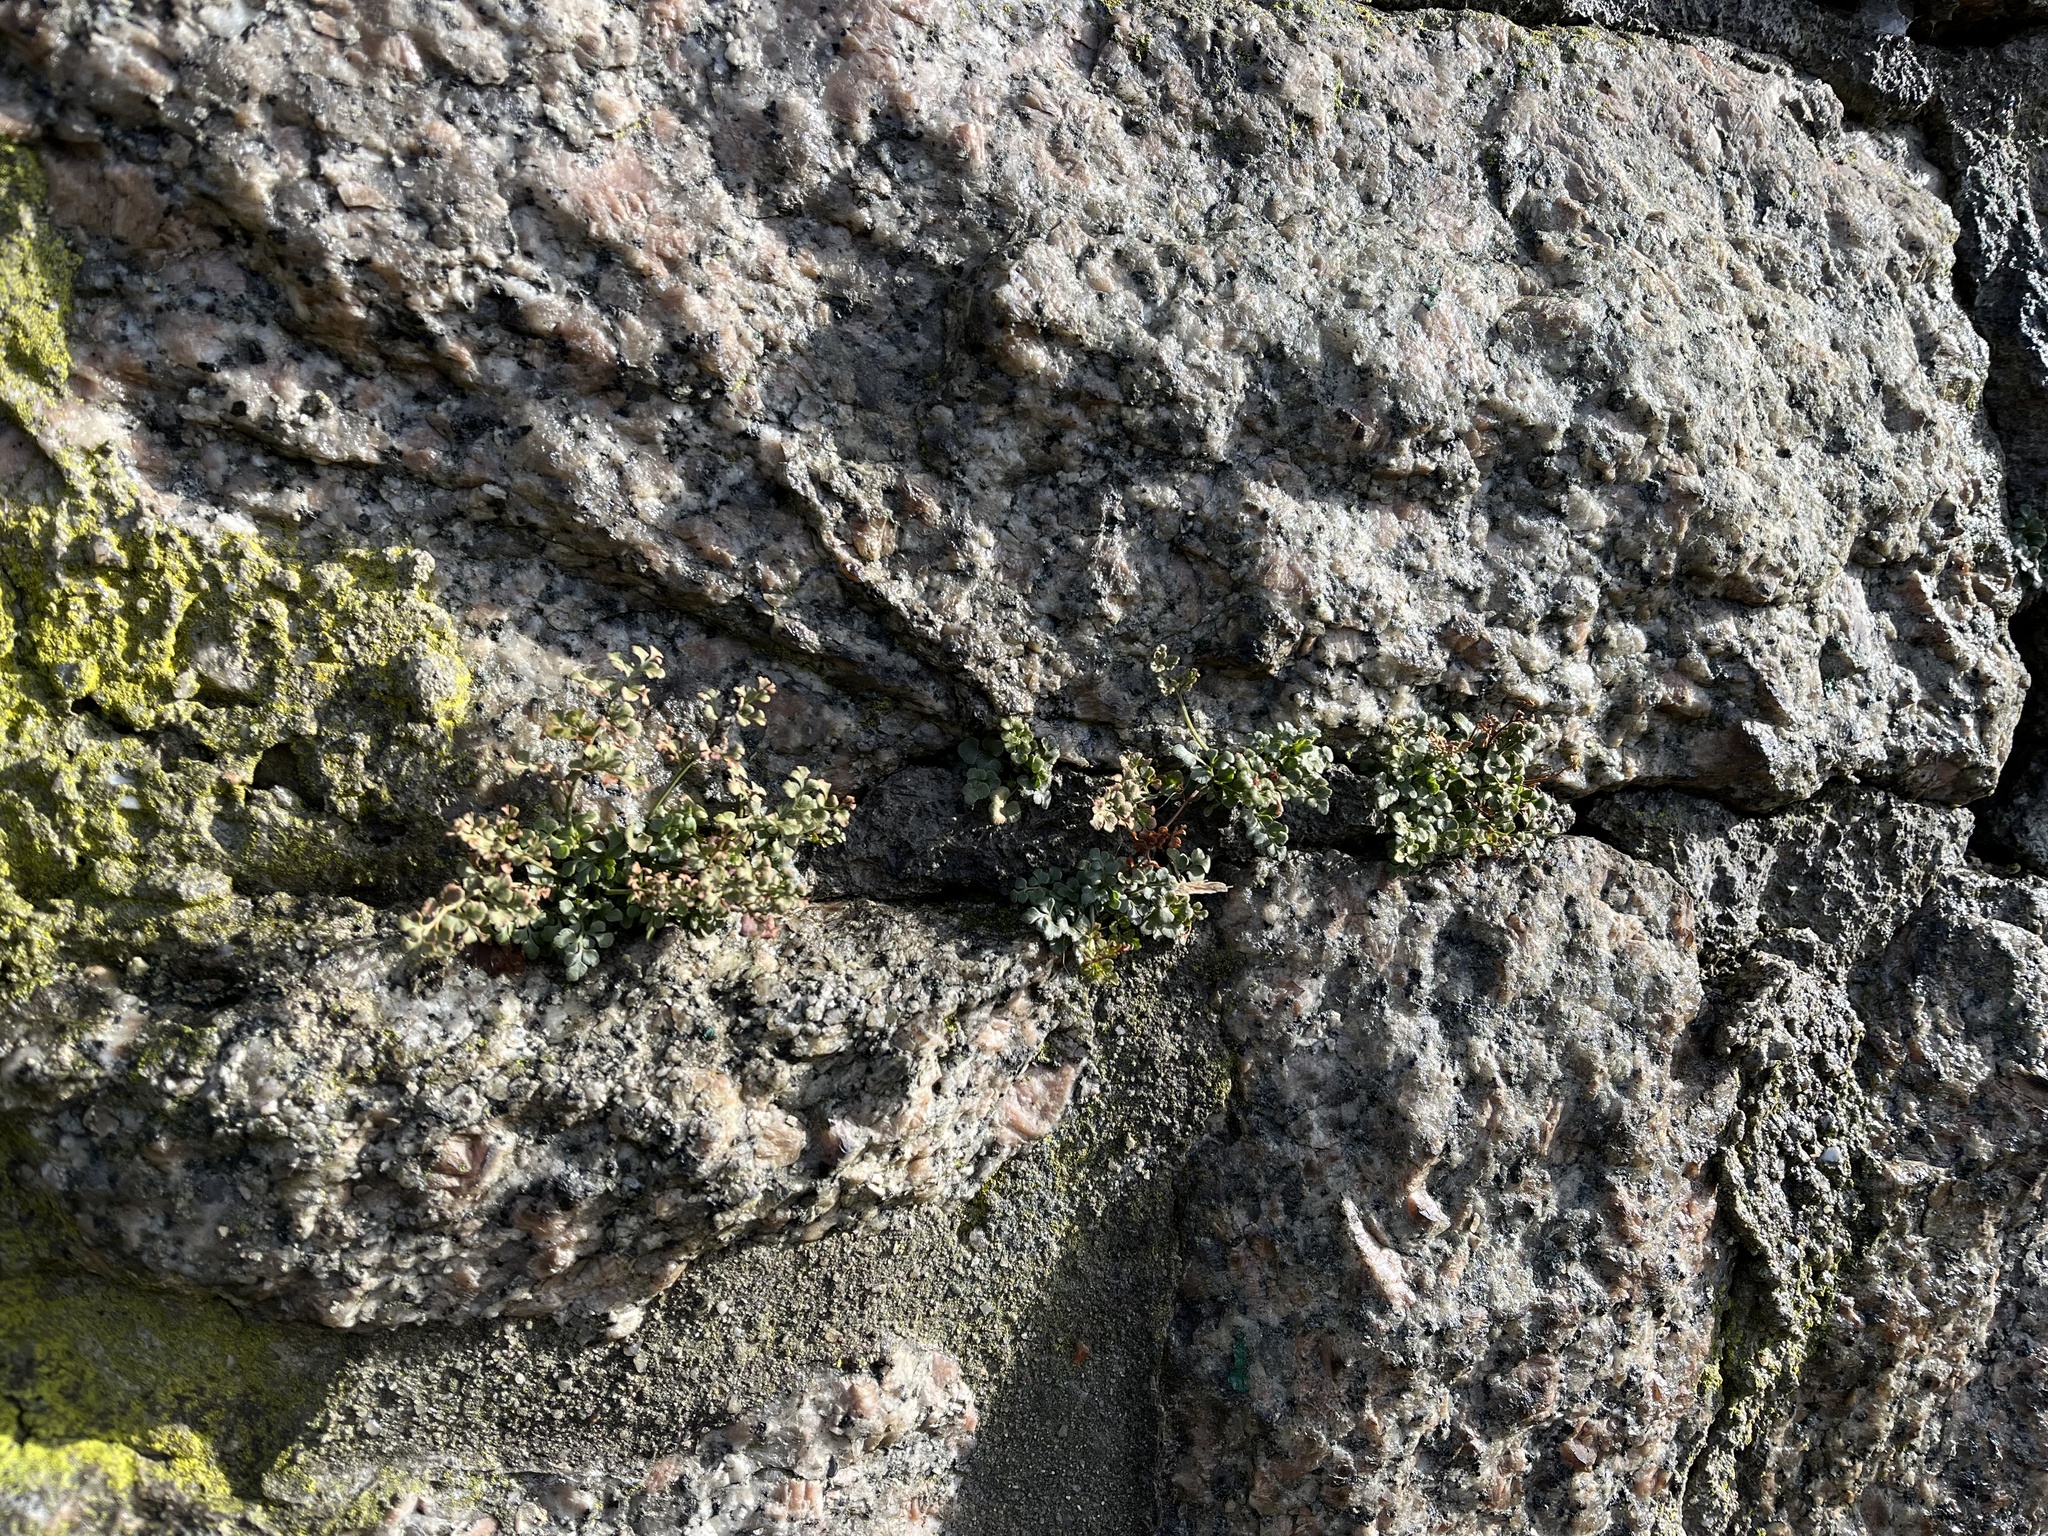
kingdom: Plantae
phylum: Tracheophyta
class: Polypodiopsida
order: Polypodiales
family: Aspleniaceae
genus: Asplenium
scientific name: Asplenium ruta-muraria
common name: Wall-rue
